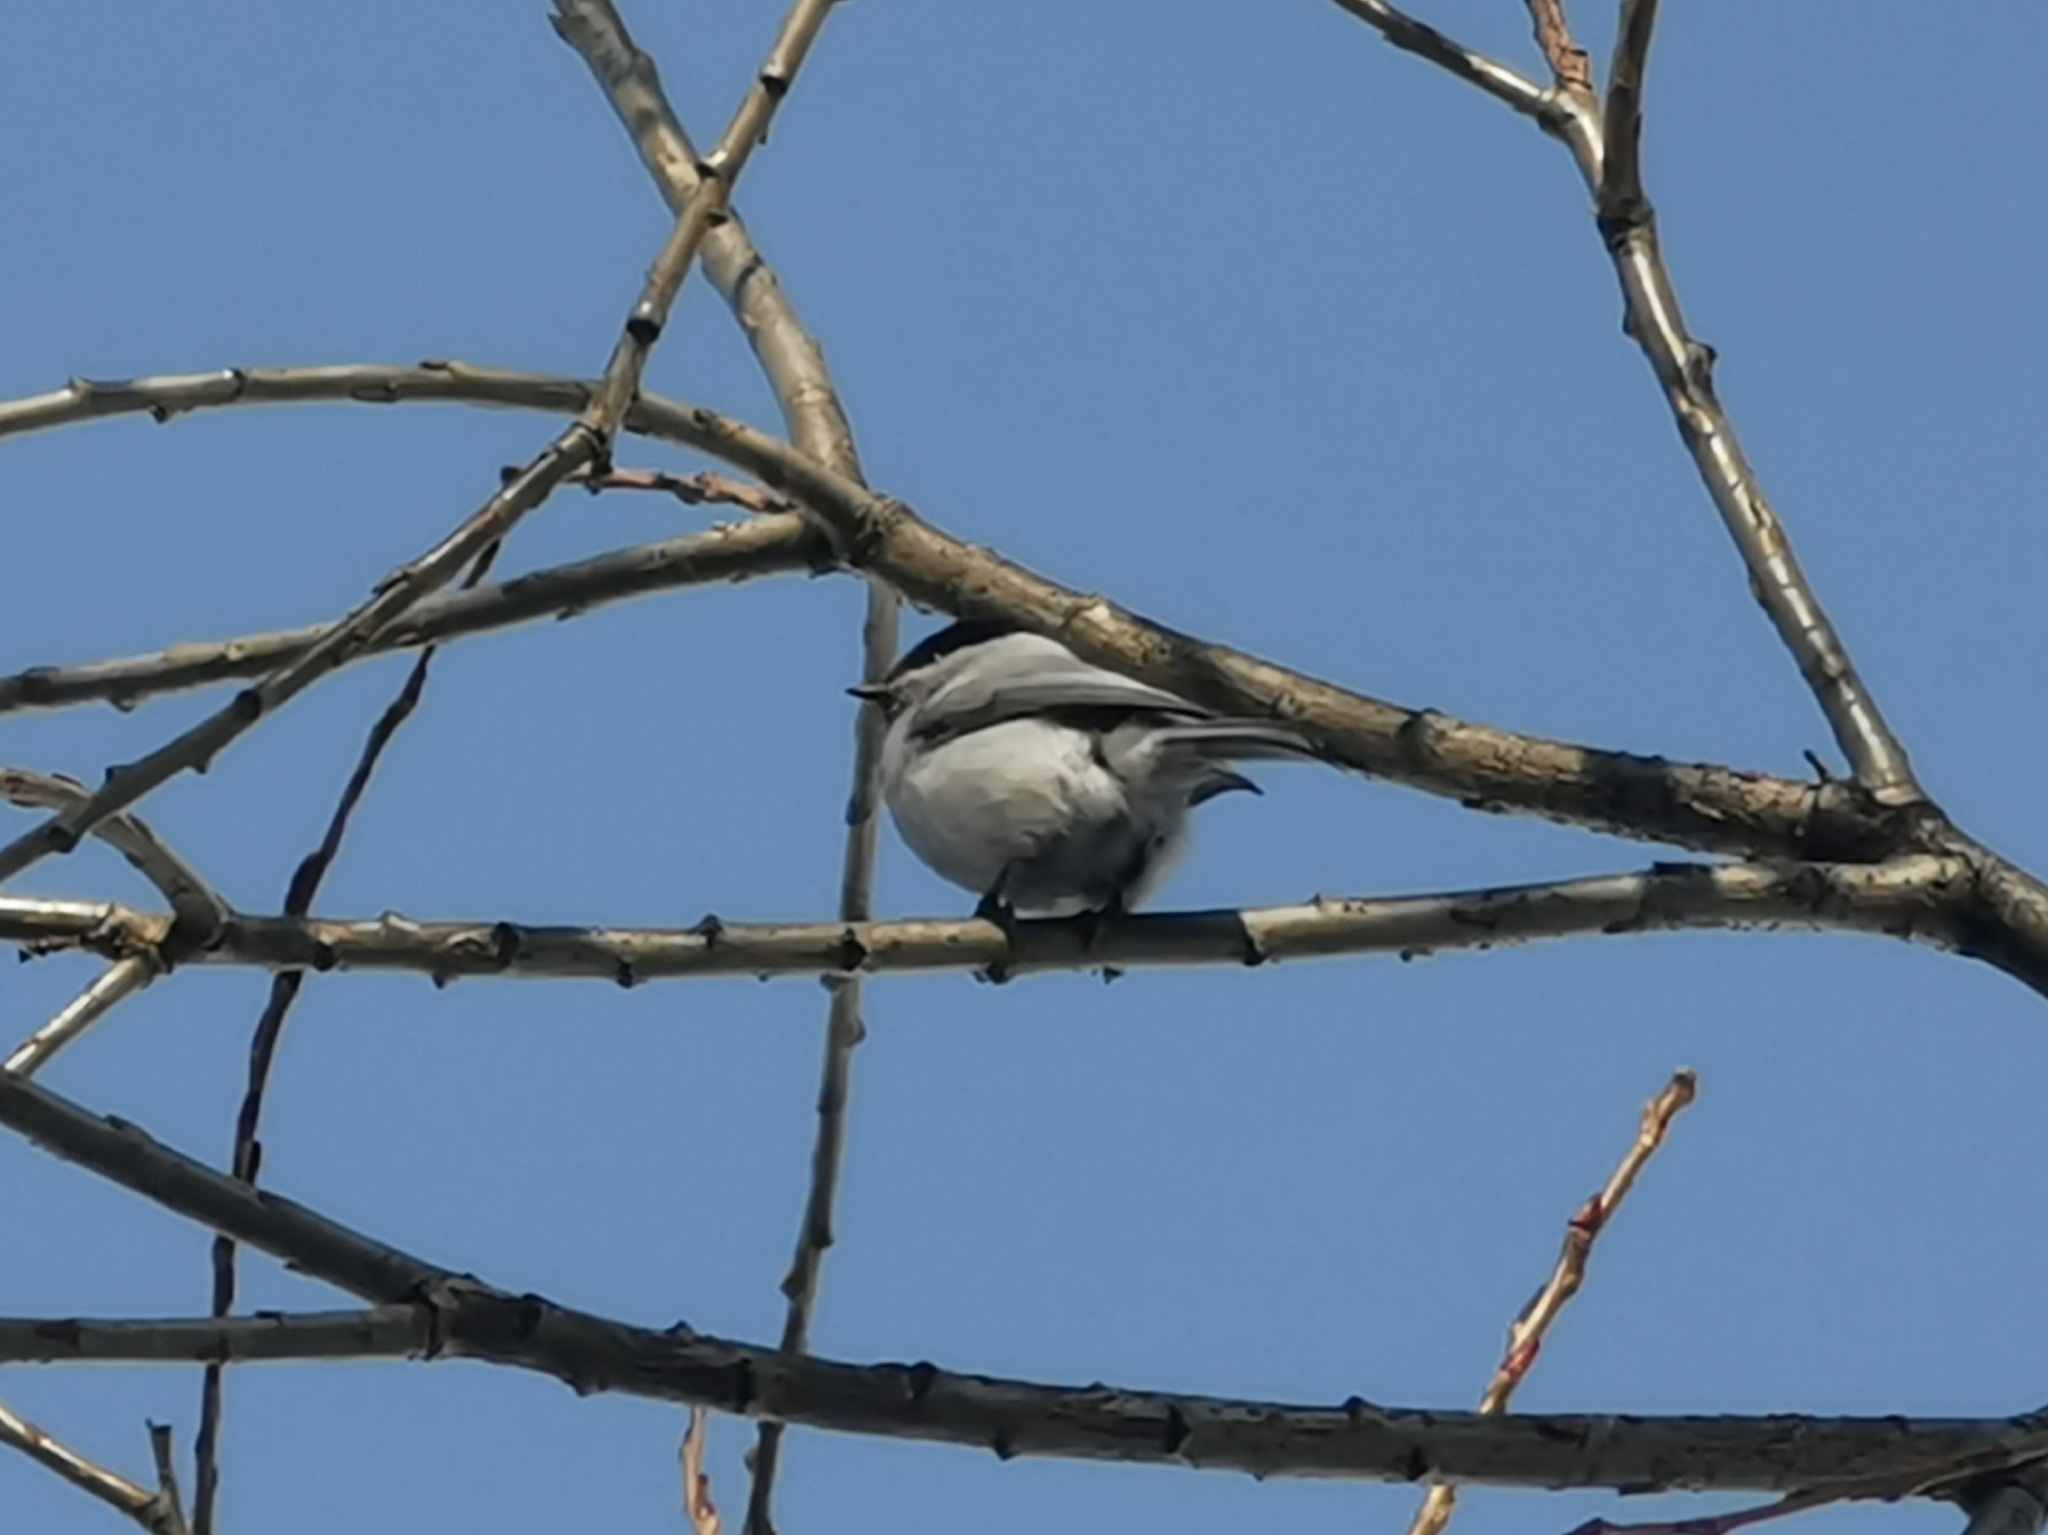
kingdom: Animalia
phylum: Chordata
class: Aves
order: Passeriformes
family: Paridae
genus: Poecile
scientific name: Poecile montanus
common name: Willow tit
